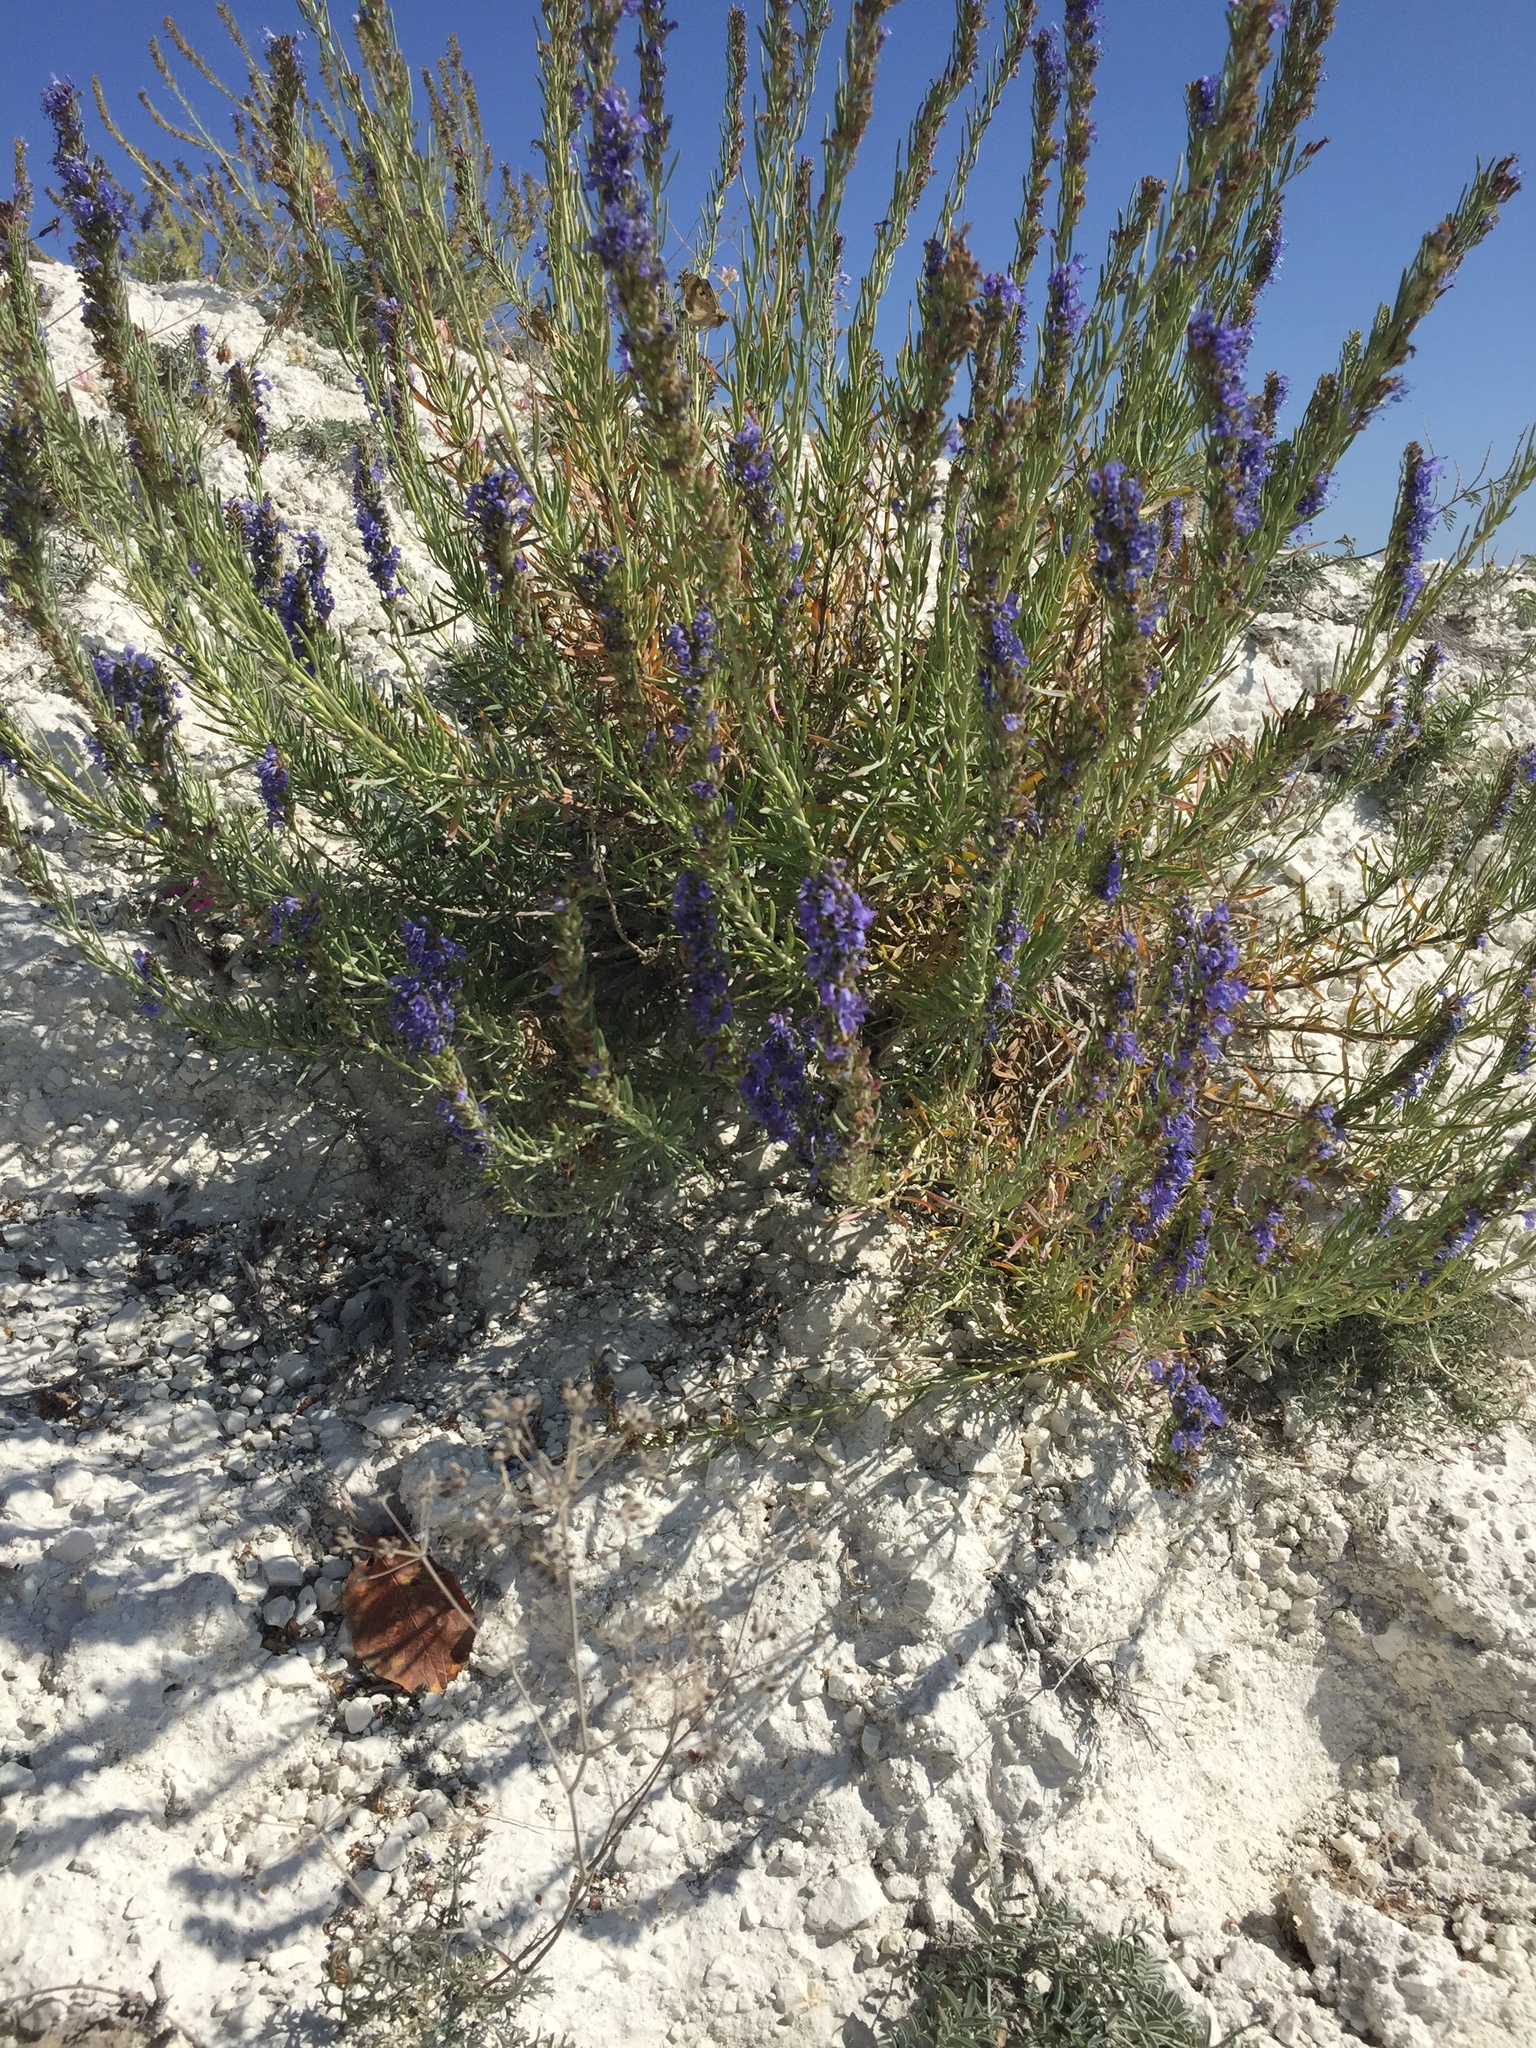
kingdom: Plantae
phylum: Tracheophyta
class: Magnoliopsida
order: Lamiales
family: Lamiaceae
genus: Hyssopus
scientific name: Hyssopus officinalis
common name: Hyssop
